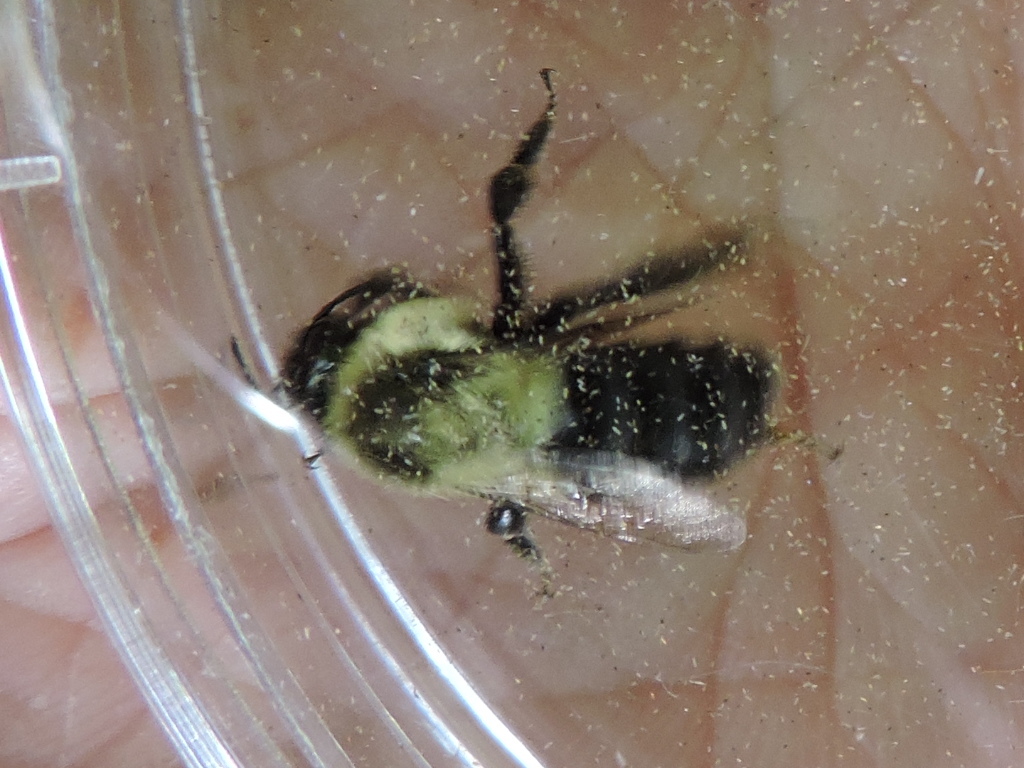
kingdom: Animalia
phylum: Arthropoda
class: Insecta
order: Hymenoptera
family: Apidae
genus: Bombus
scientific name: Bombus impatiens
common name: Common eastern bumble bee
